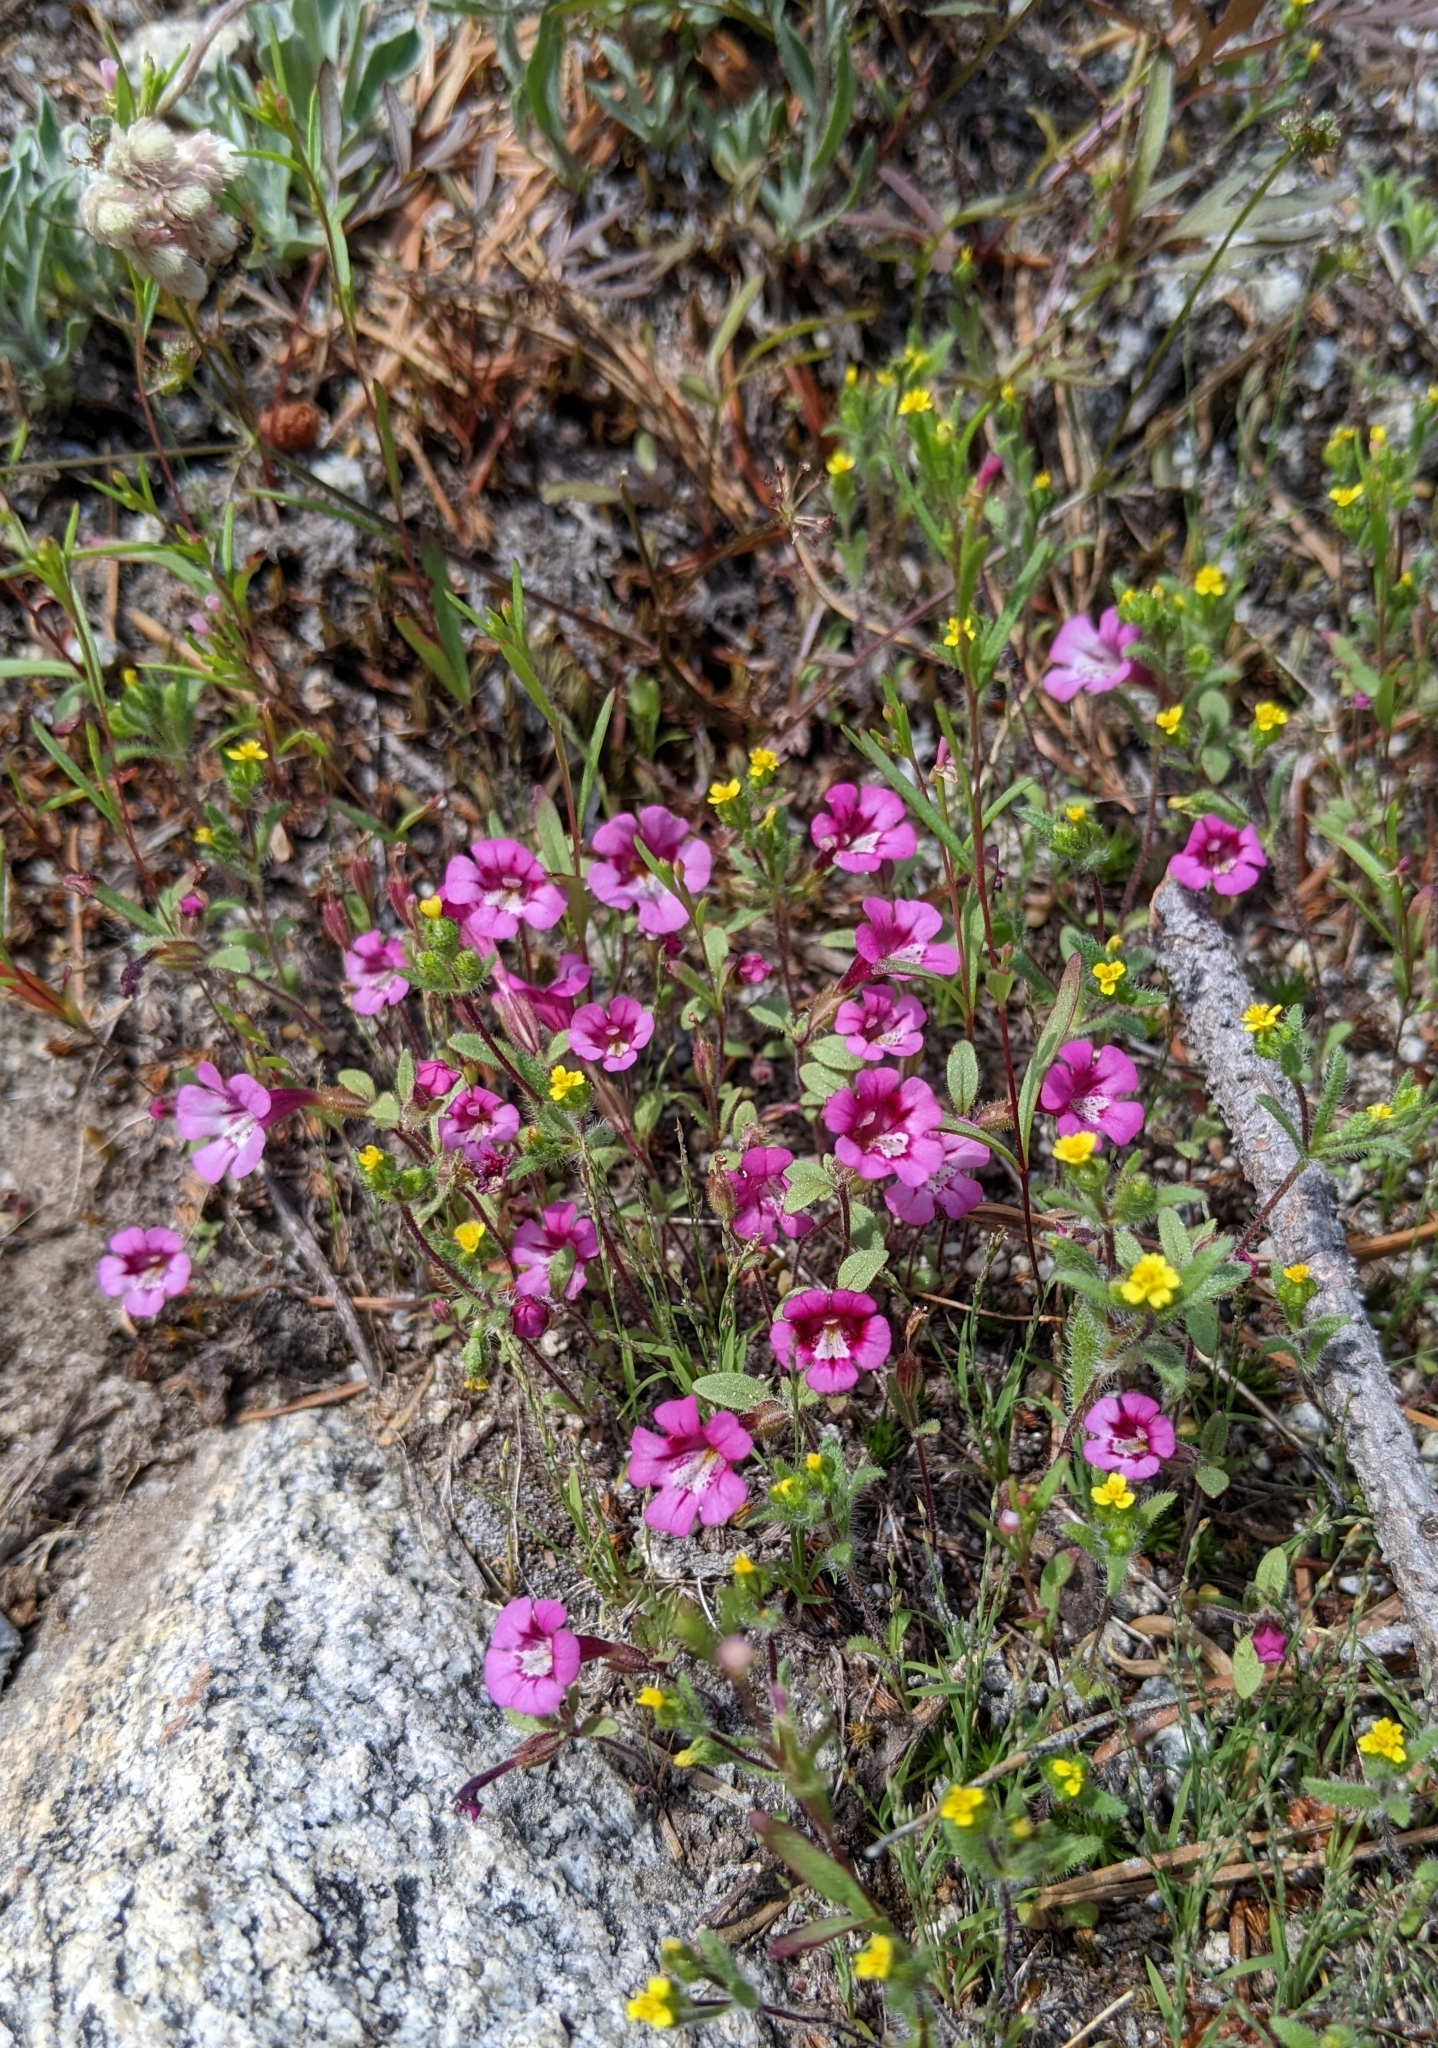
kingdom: Plantae
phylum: Tracheophyta
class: Magnoliopsida
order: Lamiales
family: Phrymaceae
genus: Diplacus
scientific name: Diplacus layneae
